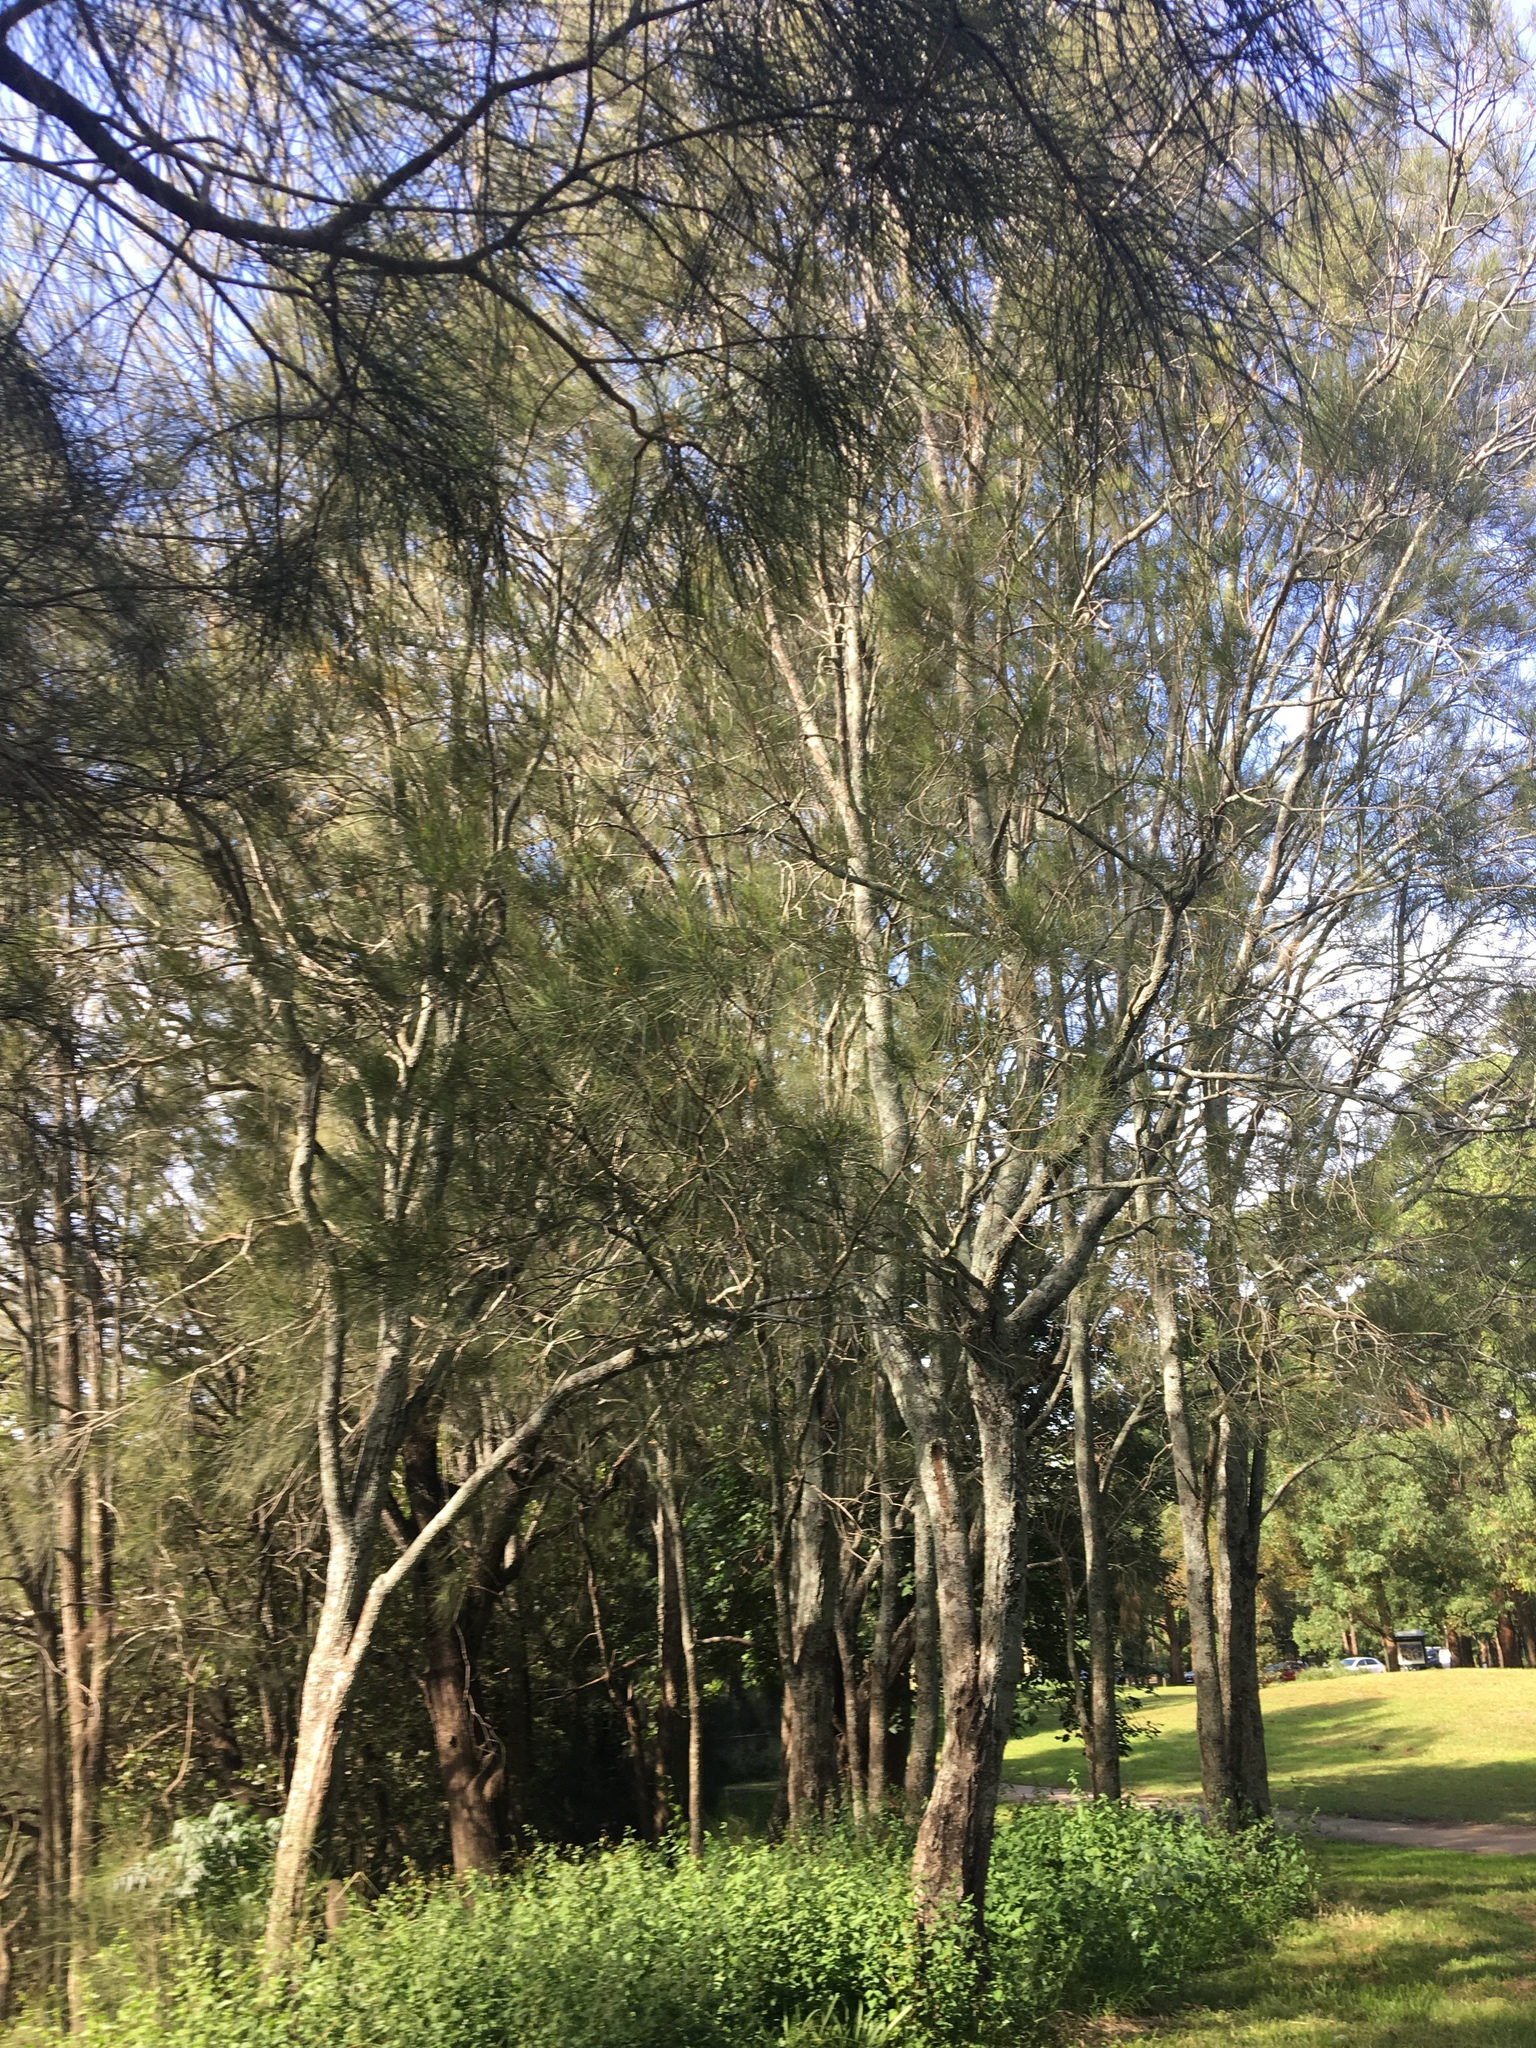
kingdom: Plantae
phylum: Tracheophyta
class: Magnoliopsida
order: Fagales
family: Casuarinaceae
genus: Casuarina
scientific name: Casuarina glauca
